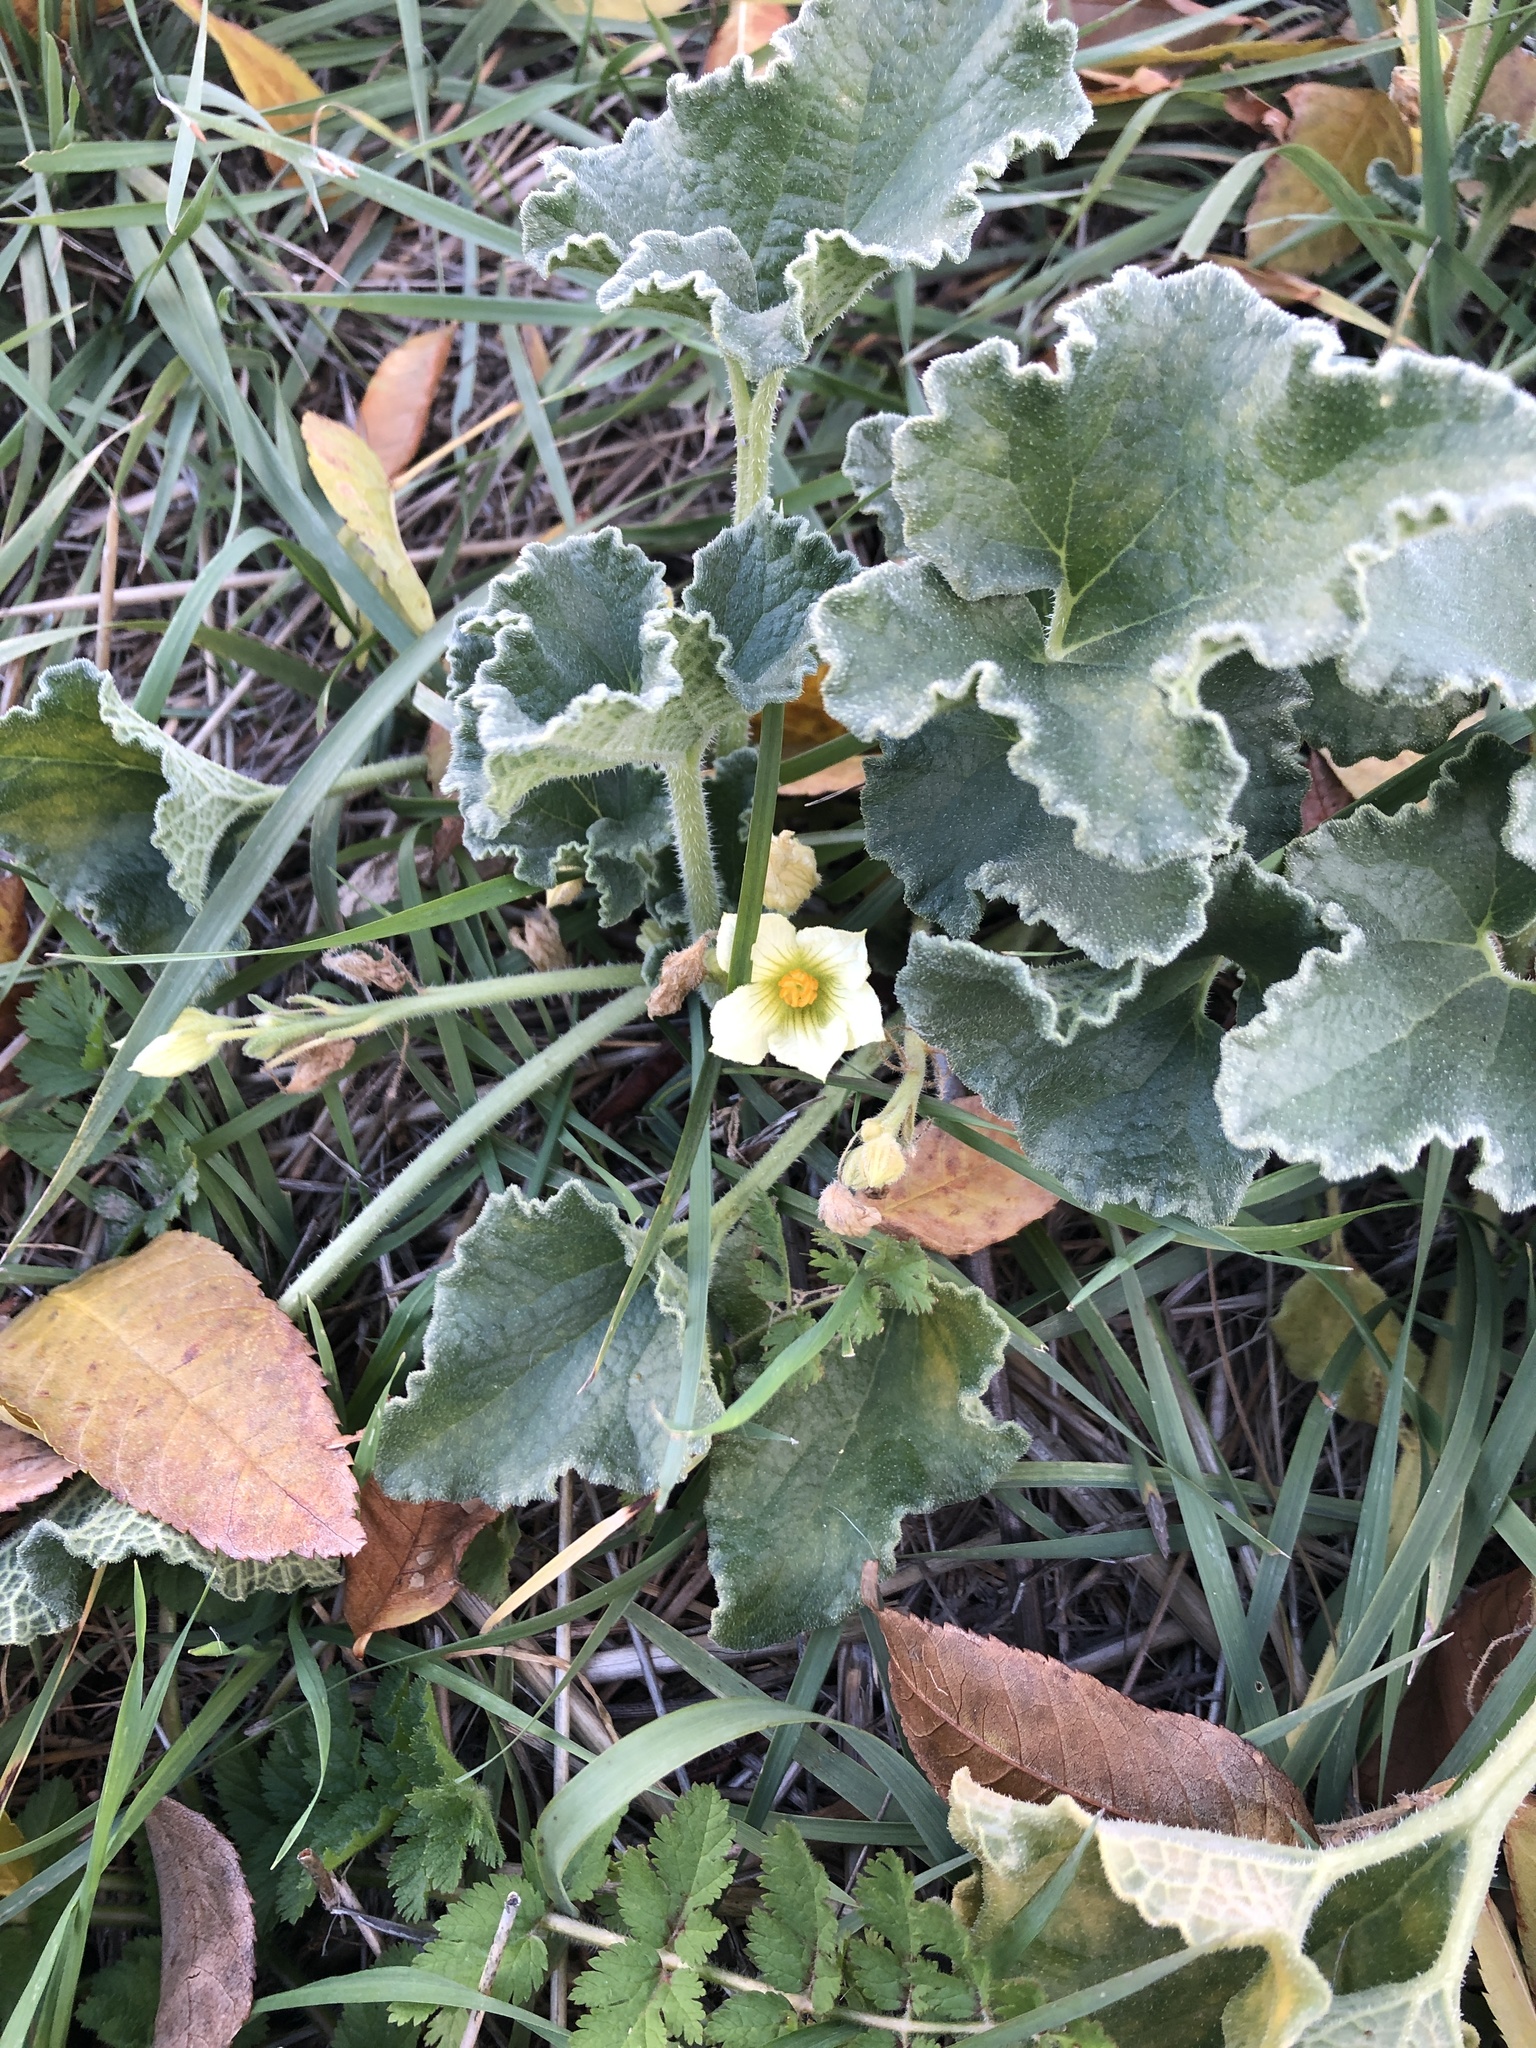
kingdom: Plantae
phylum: Tracheophyta
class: Magnoliopsida
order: Cucurbitales
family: Cucurbitaceae
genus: Ecballium
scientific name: Ecballium elaterium
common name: Squirting cucumber
